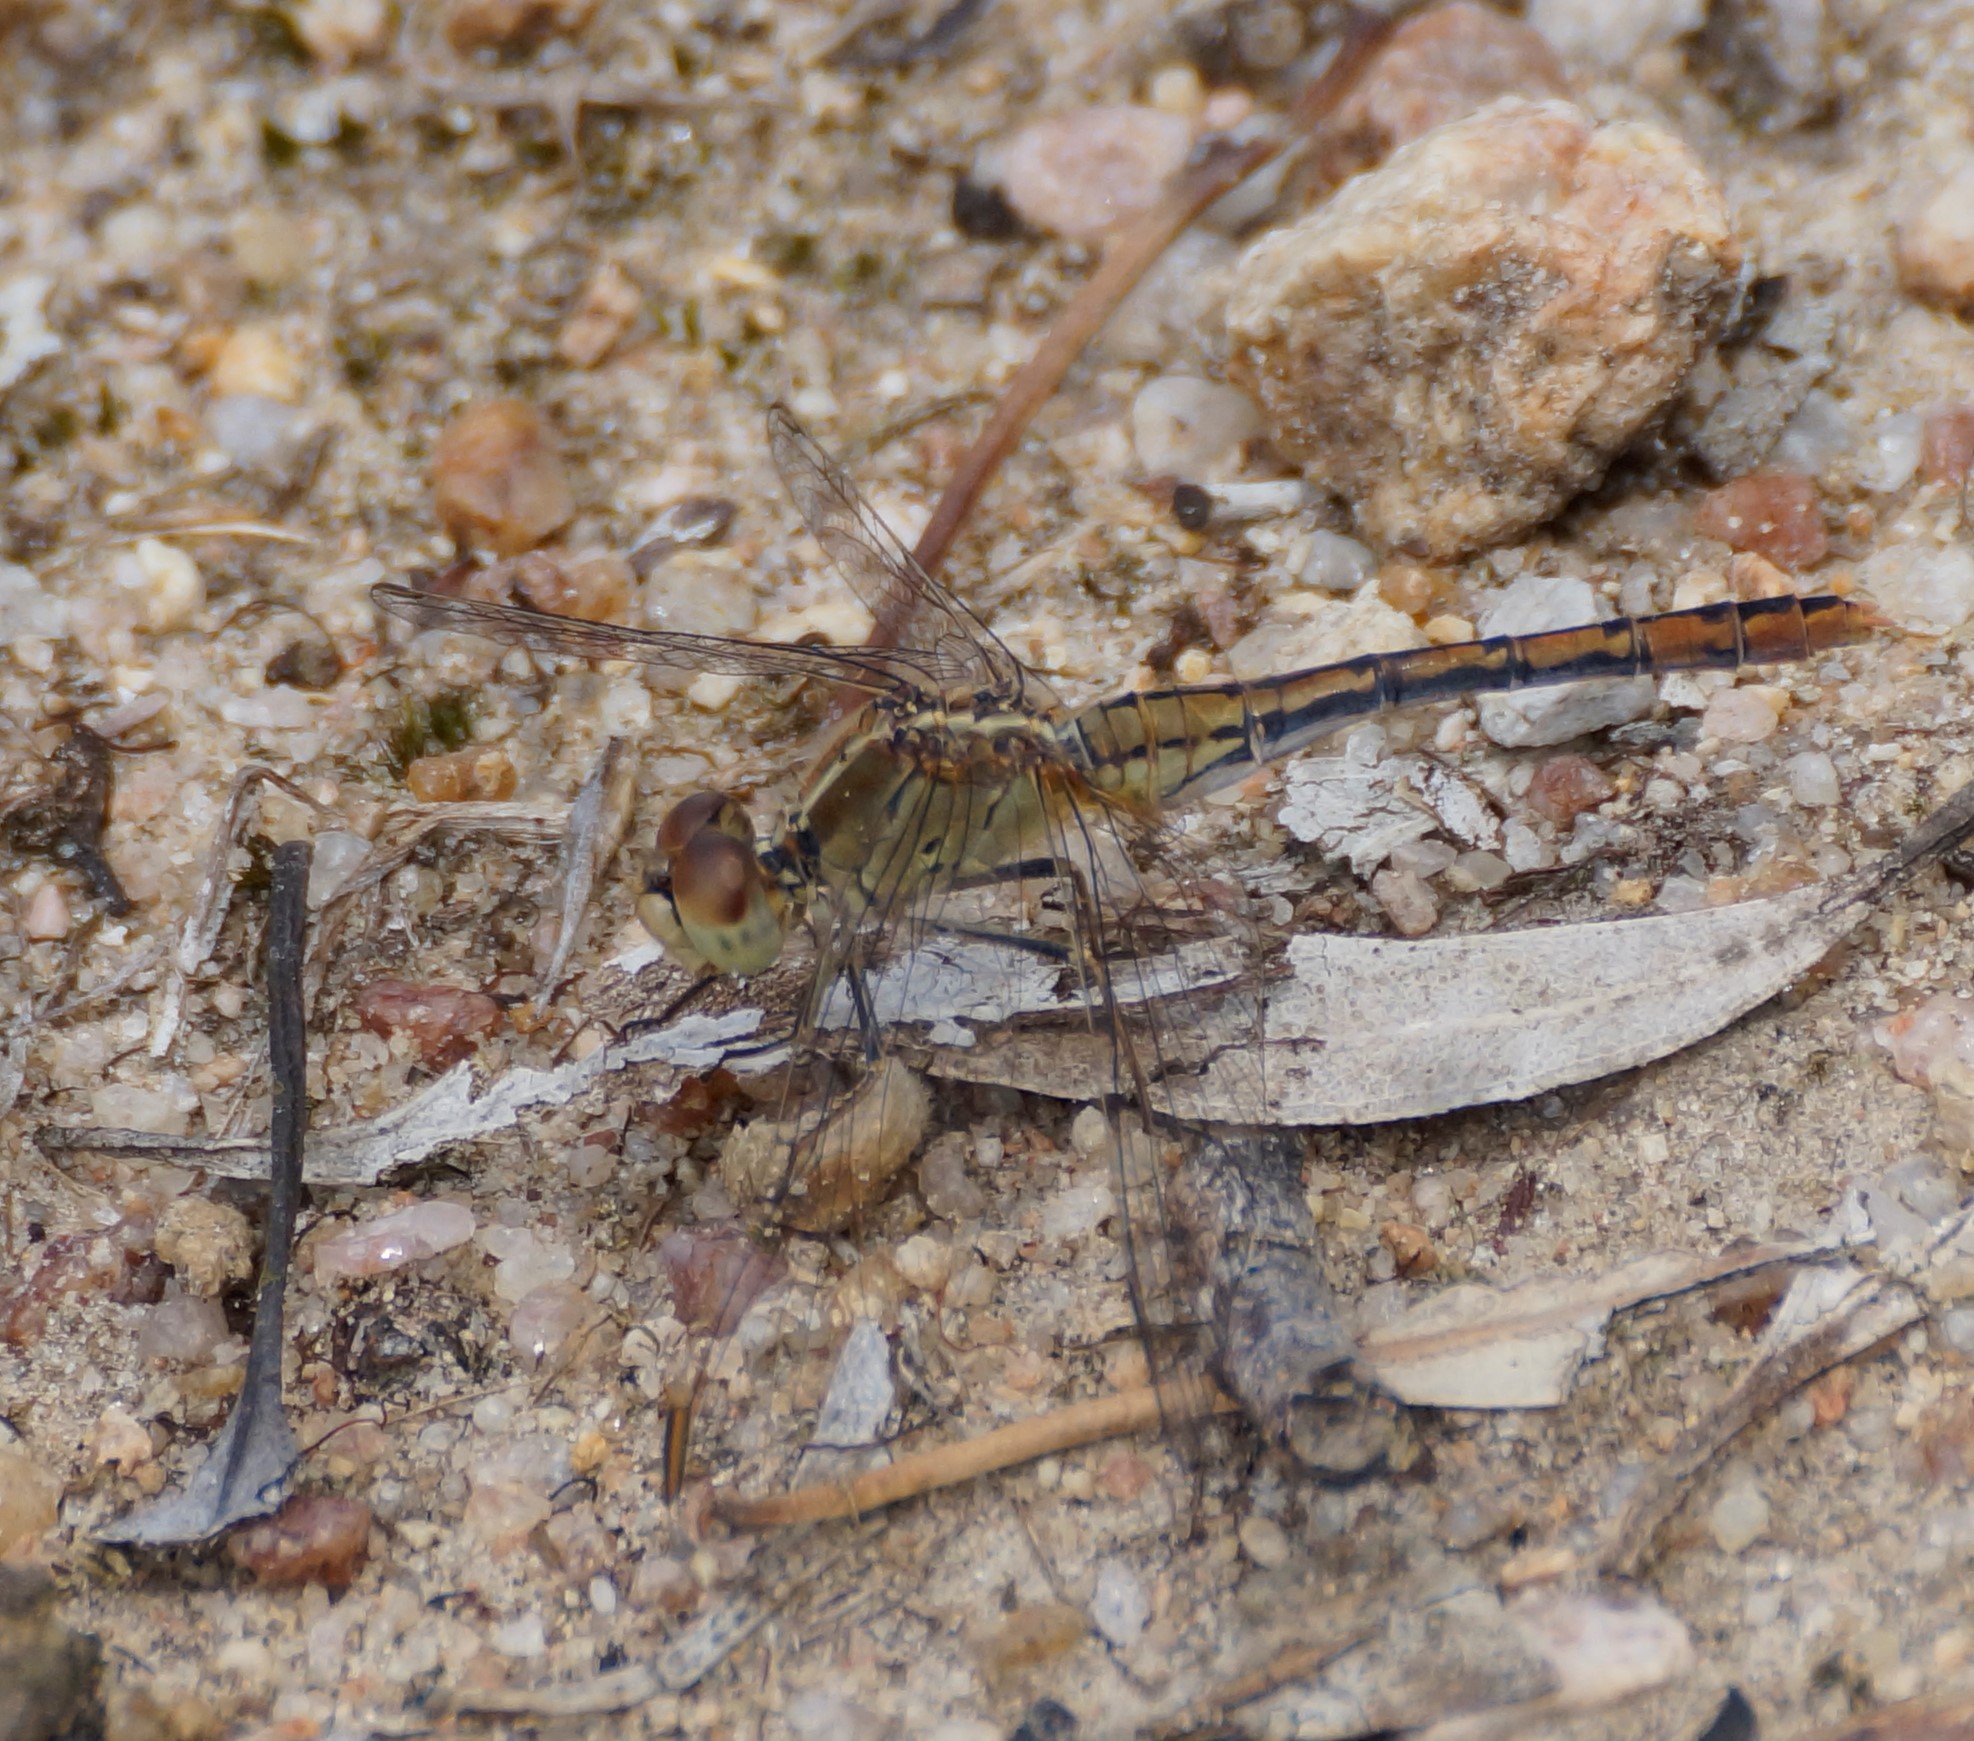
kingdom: Animalia
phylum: Arthropoda
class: Insecta
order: Odonata
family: Libellulidae
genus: Diplacodes
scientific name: Diplacodes bipunctata
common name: Red percher dragonfly
